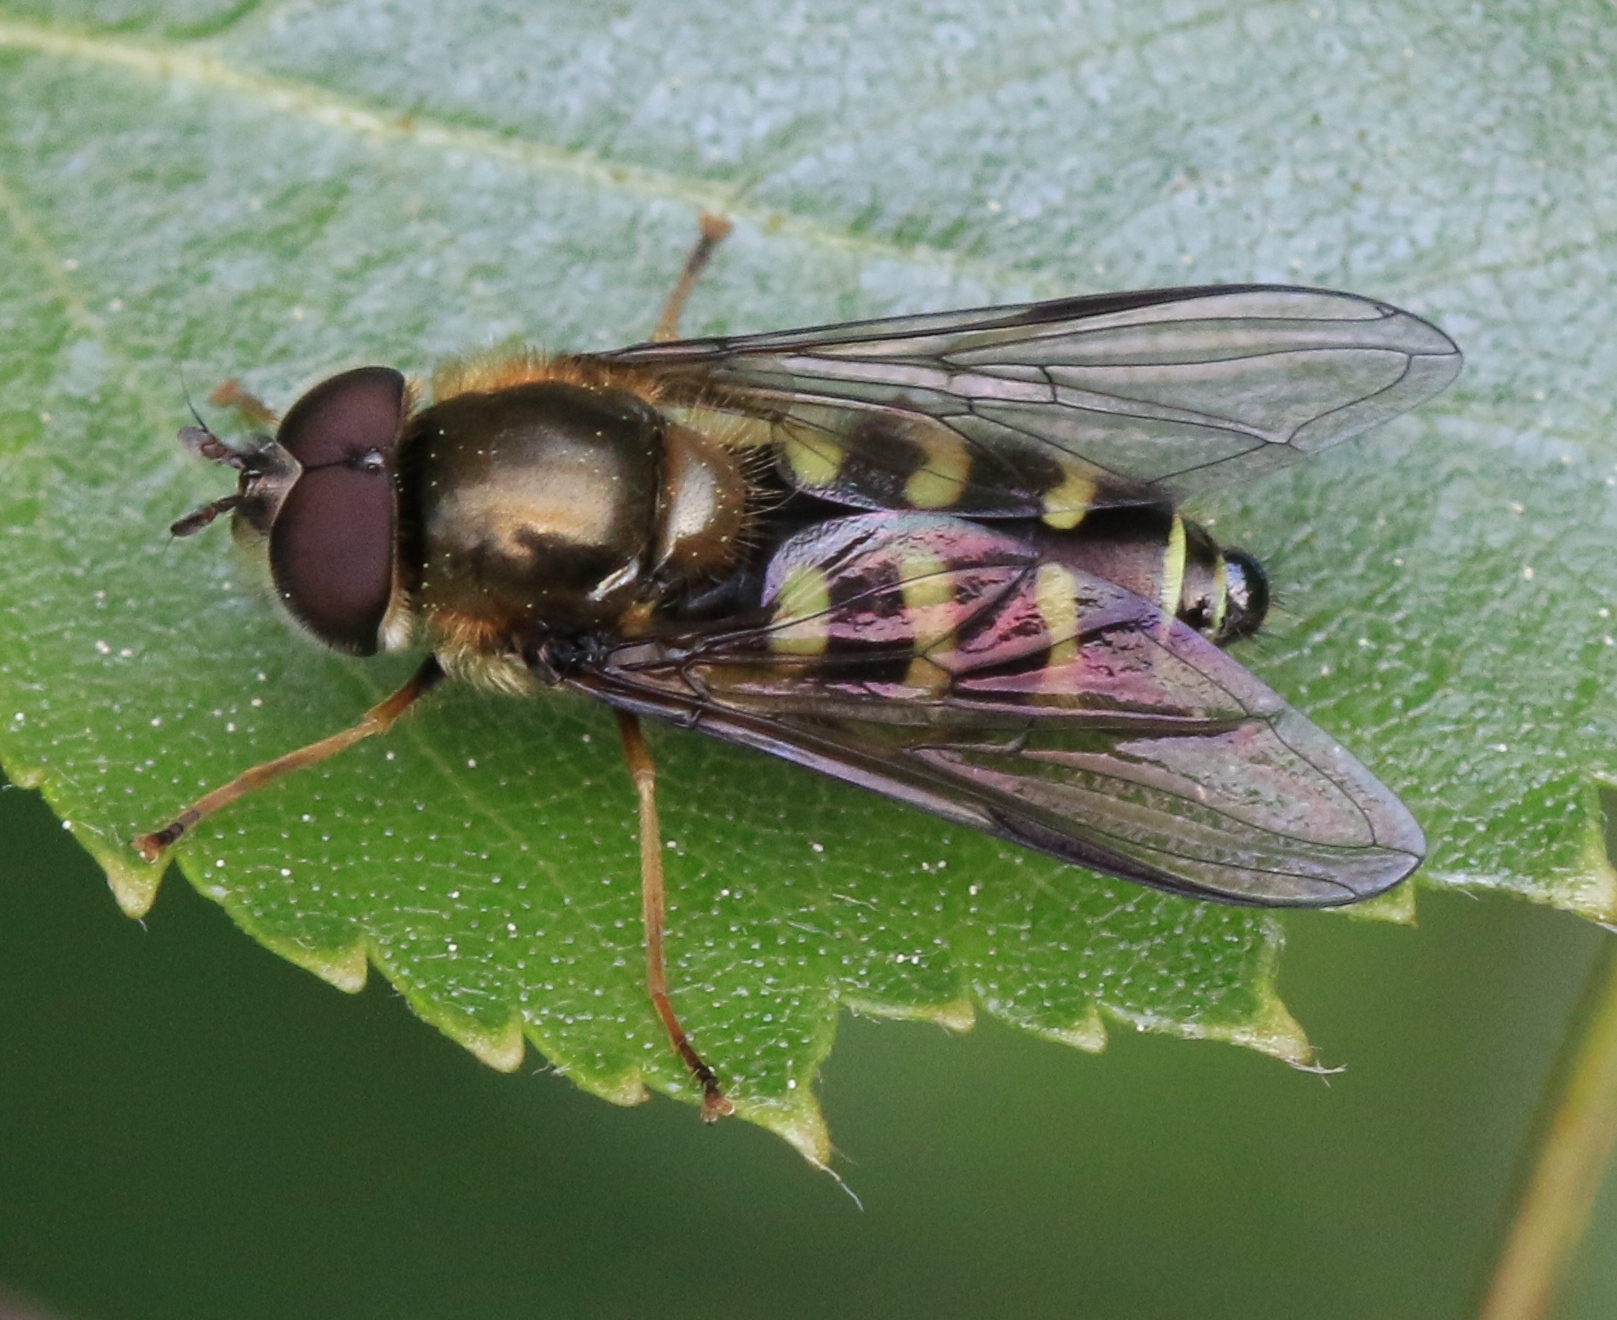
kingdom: Animalia
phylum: Arthropoda
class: Insecta
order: Diptera
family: Syrphidae
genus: Dasysyrphus
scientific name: Dasysyrphus
